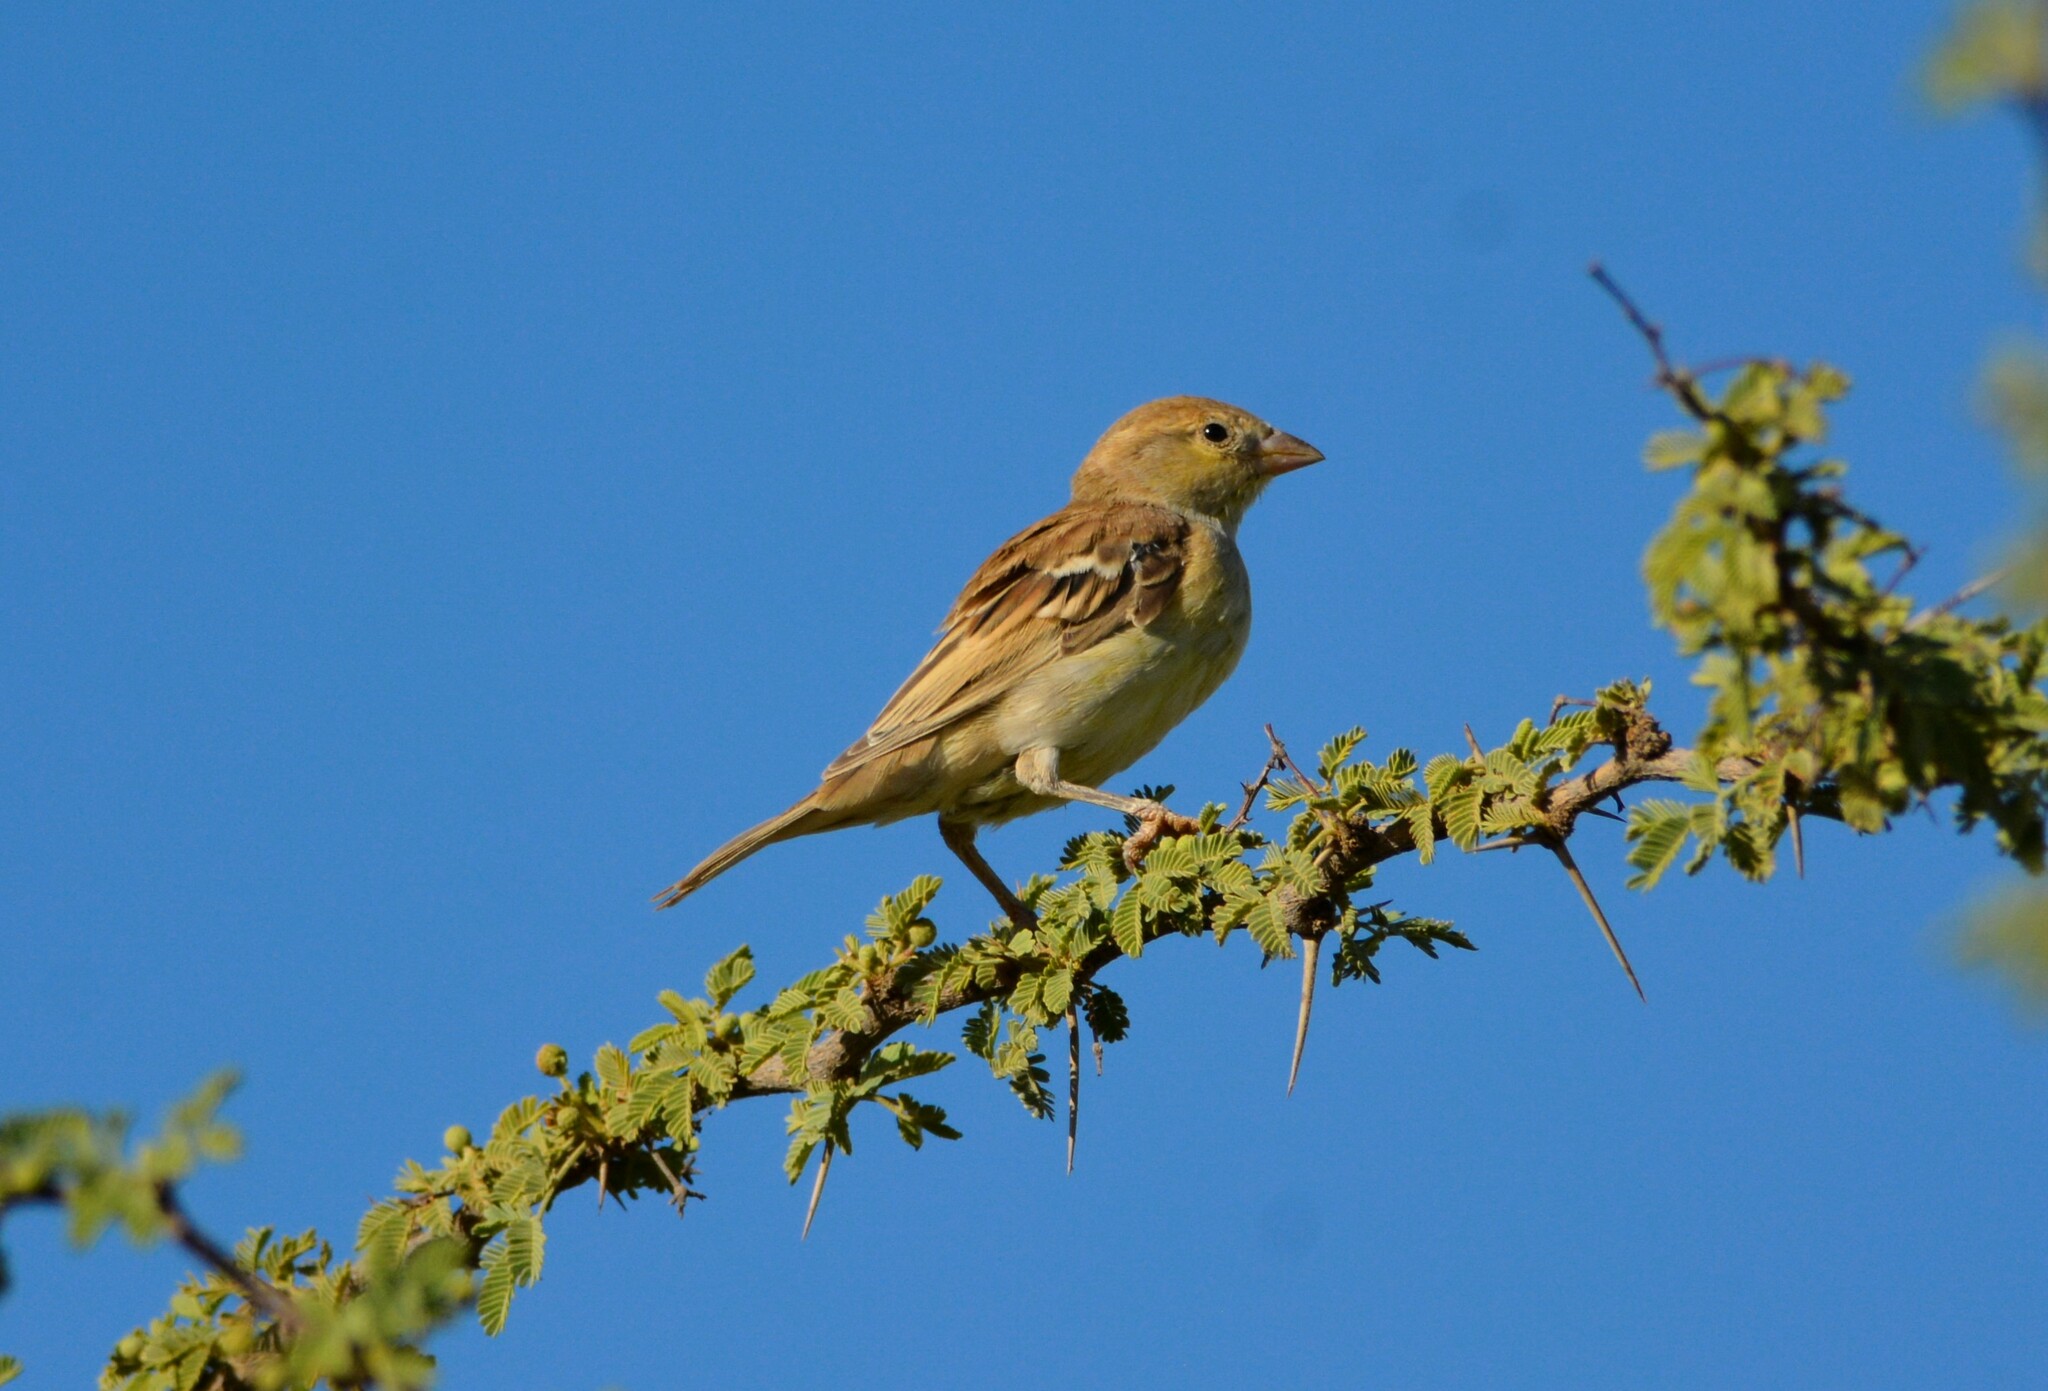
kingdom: Animalia
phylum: Chordata
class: Aves
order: Passeriformes
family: Passeridae
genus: Passer
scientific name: Passer luteus
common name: Sudan golden sparrow
